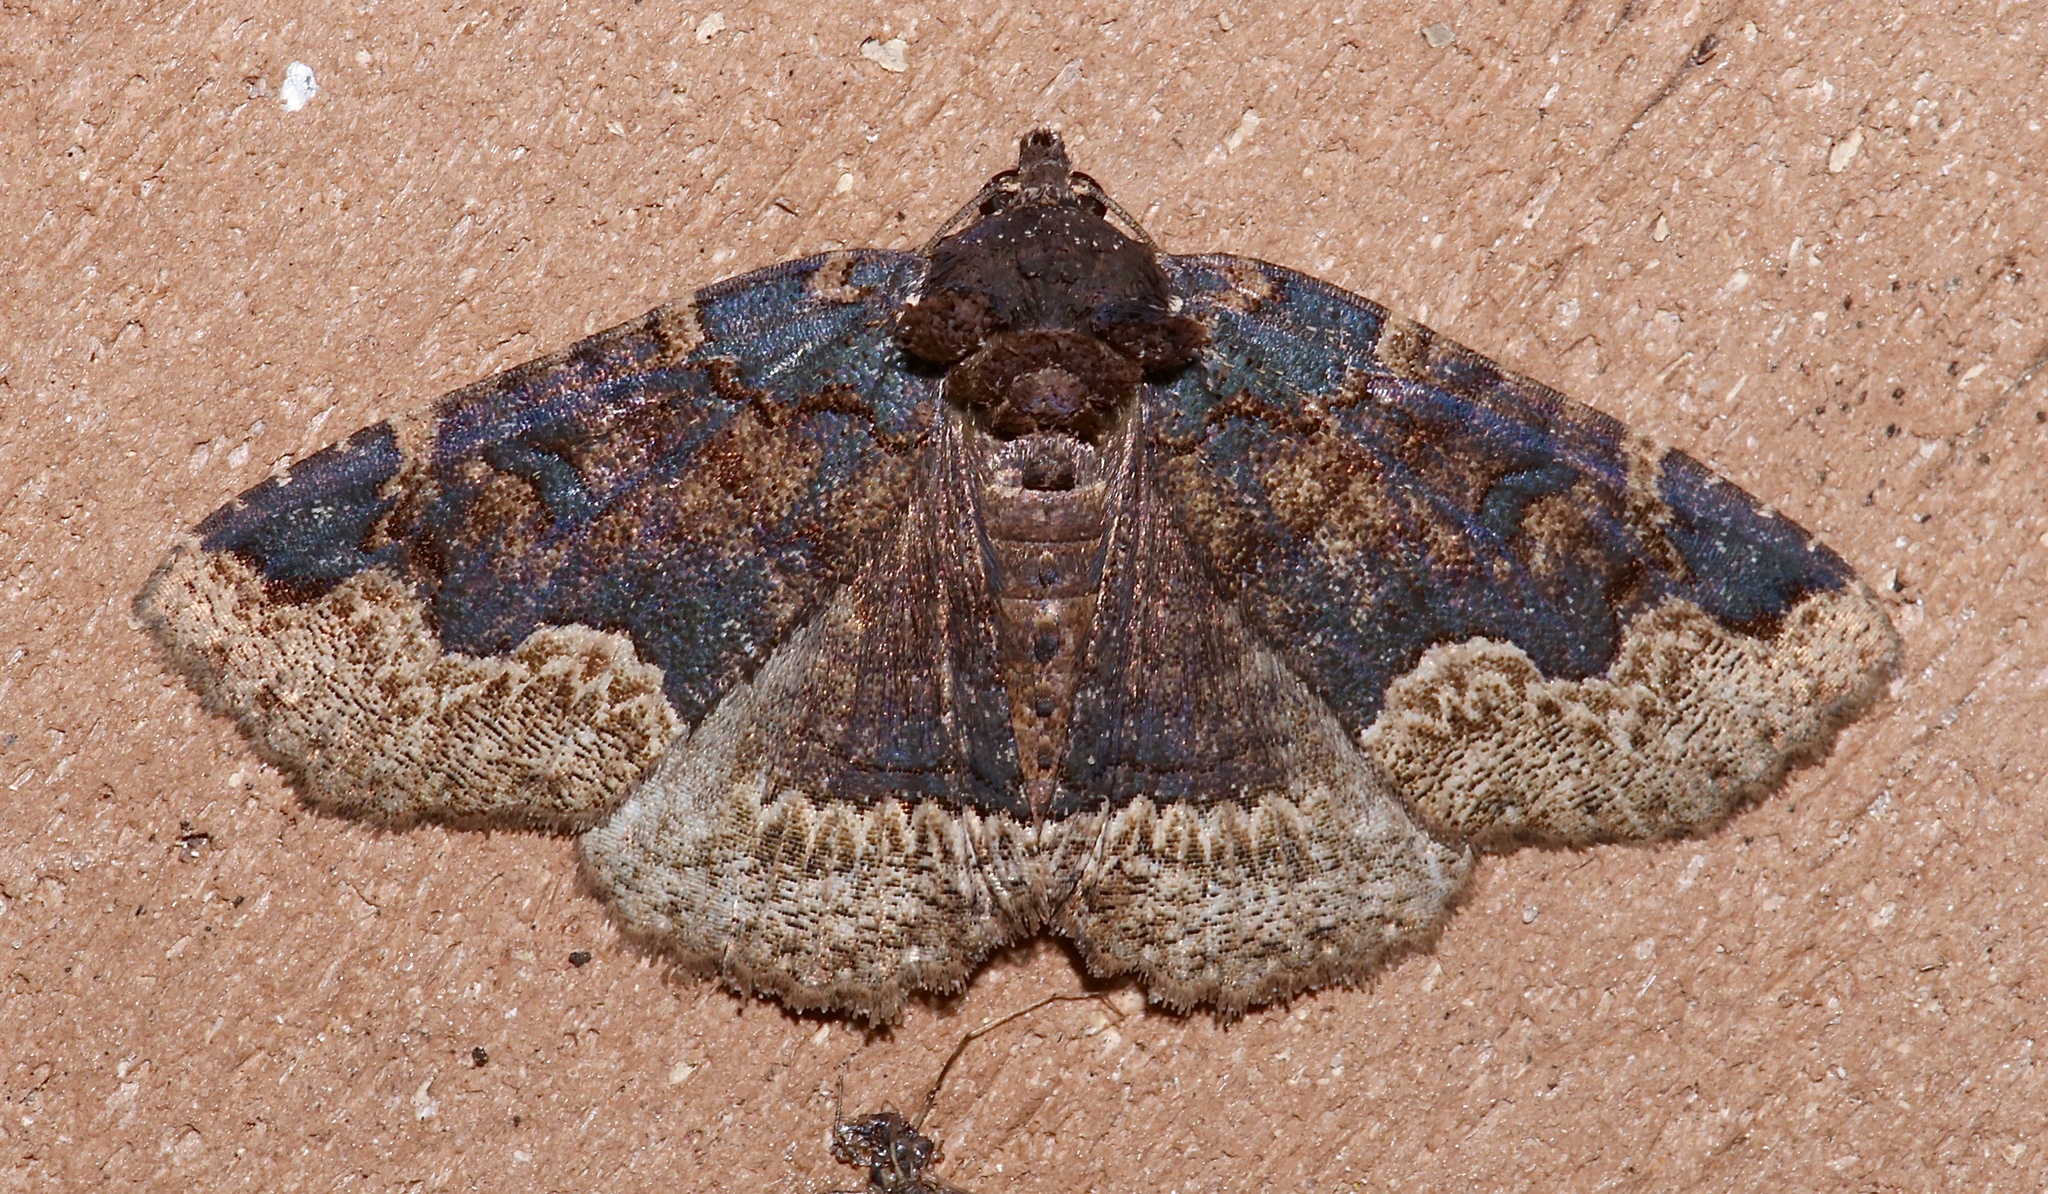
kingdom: Animalia
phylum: Arthropoda
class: Insecta
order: Lepidoptera
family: Erebidae
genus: Zale
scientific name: Zale horrida
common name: Horrid zale moth
